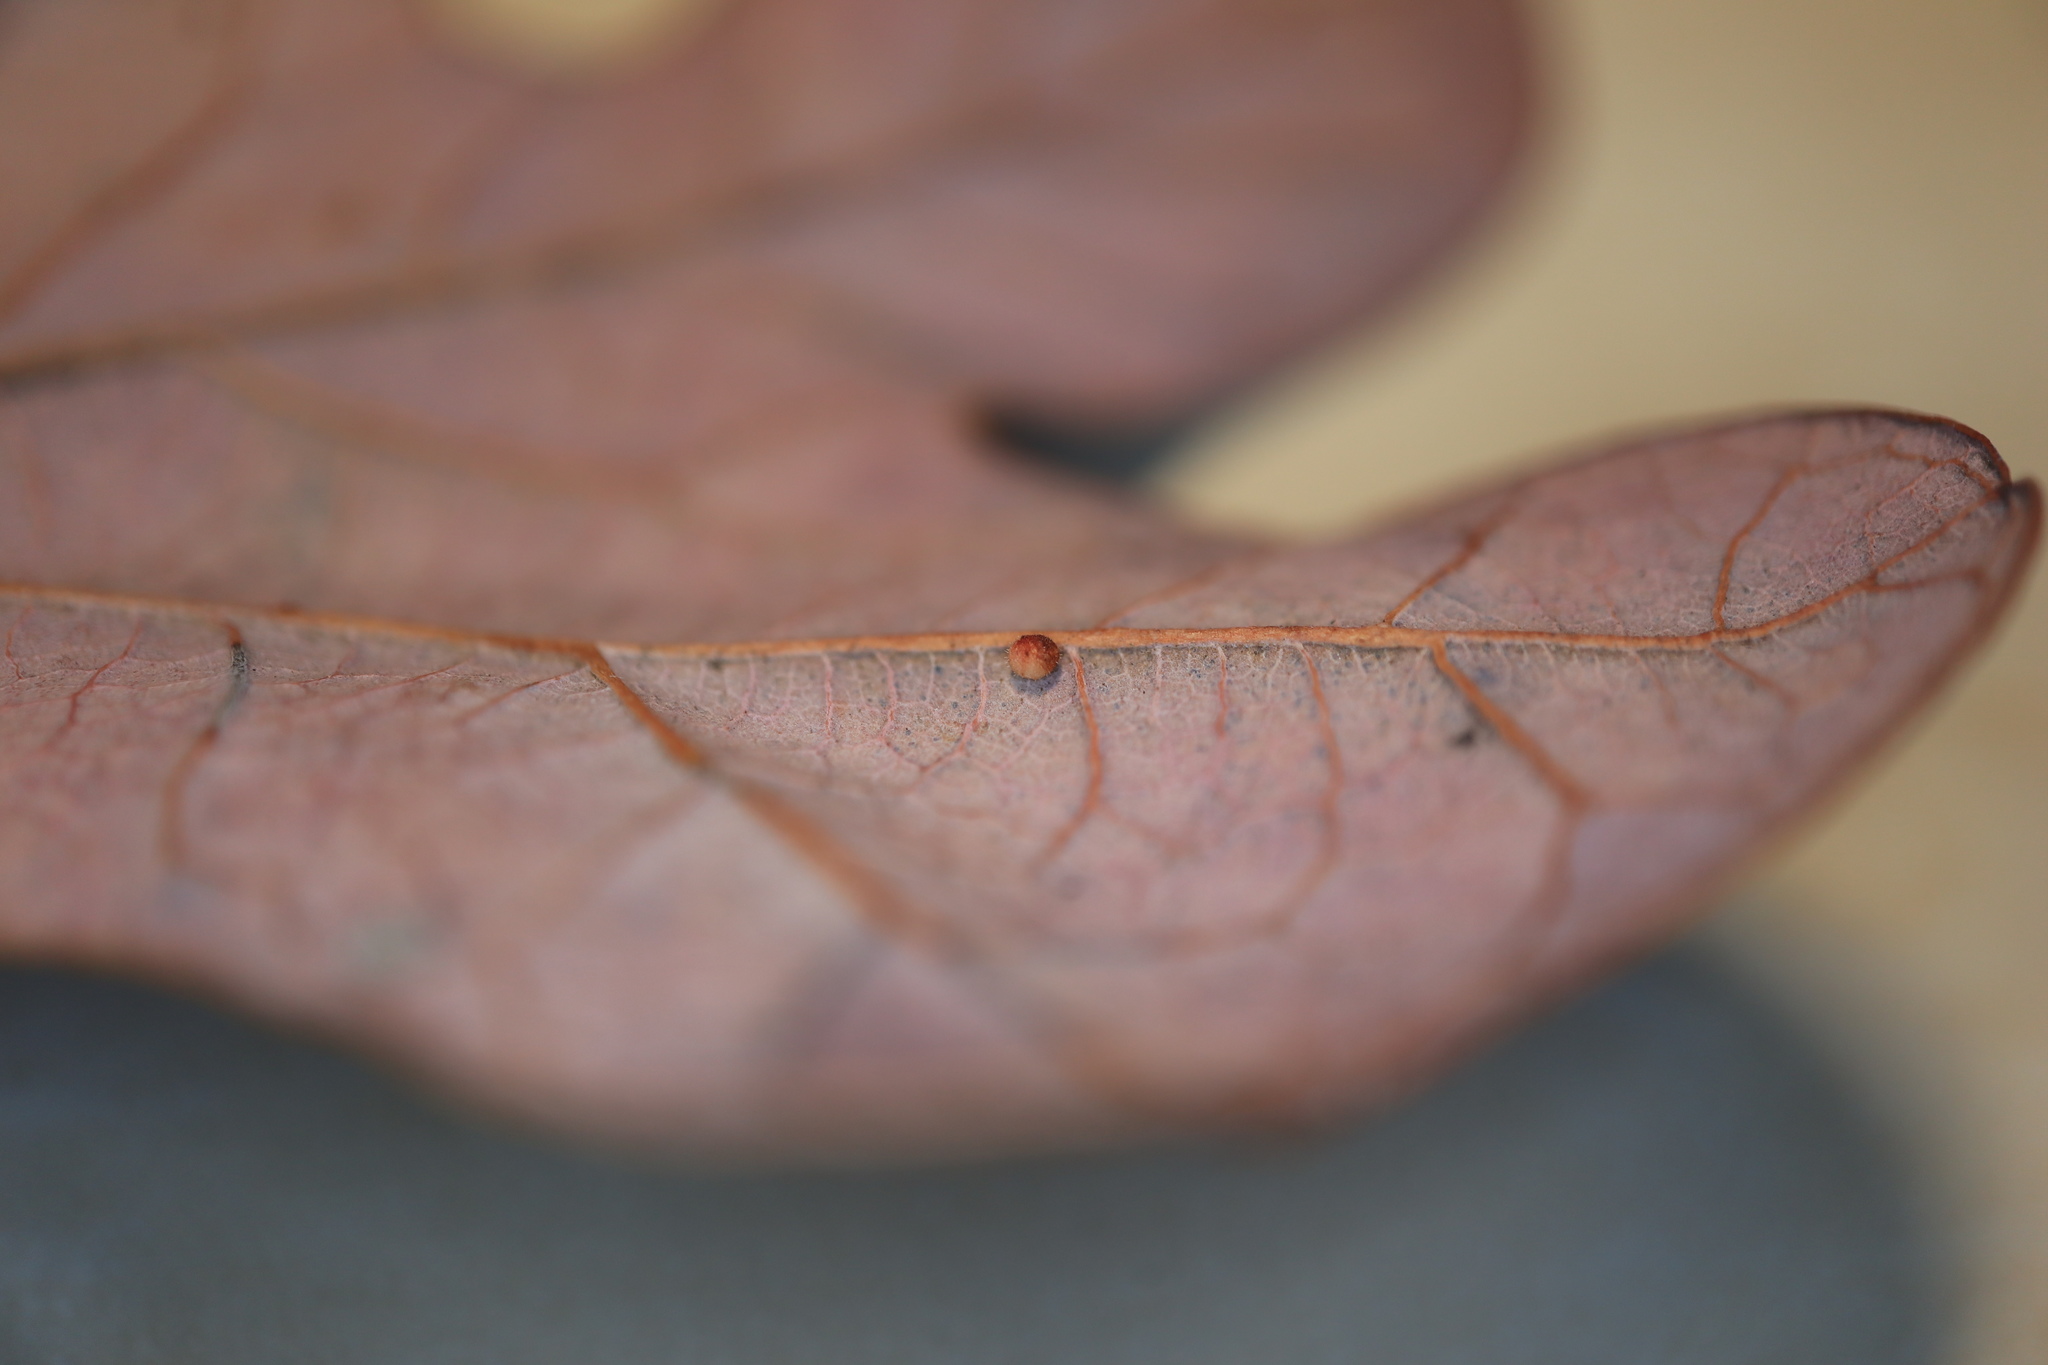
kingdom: Animalia
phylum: Arthropoda
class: Insecta
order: Hymenoptera
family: Cynipidae
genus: Neuroterus
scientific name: Neuroterus saltarius
